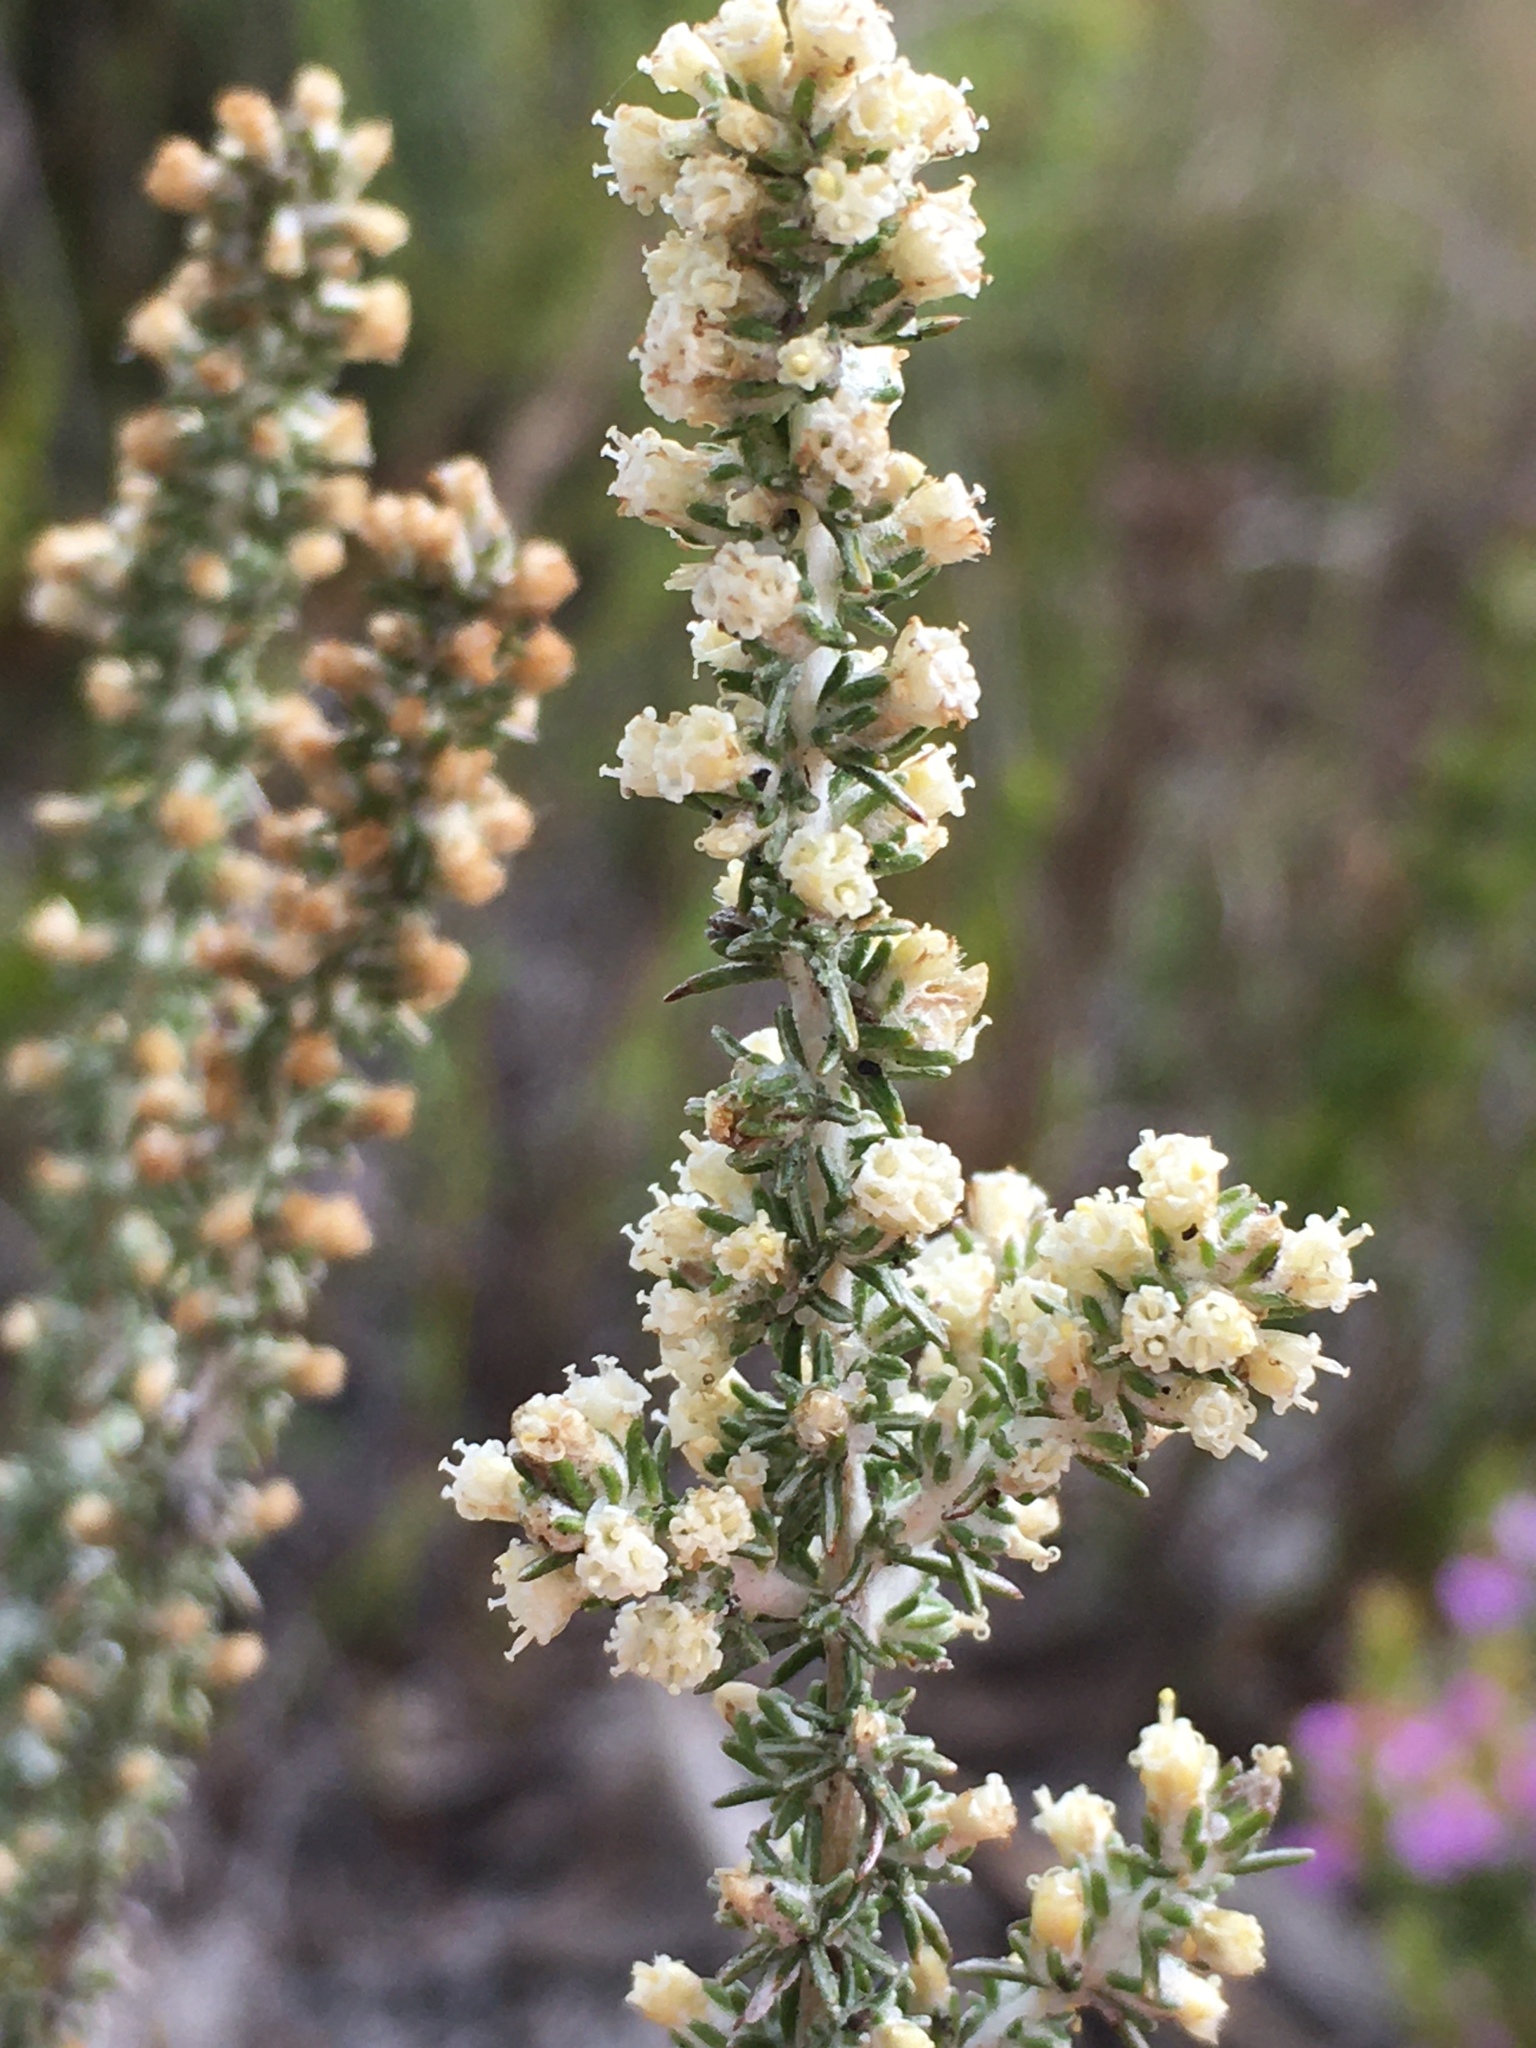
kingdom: Plantae
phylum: Tracheophyta
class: Magnoliopsida
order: Asterales
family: Asteraceae
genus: Ifloga
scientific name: Ifloga ambigua
